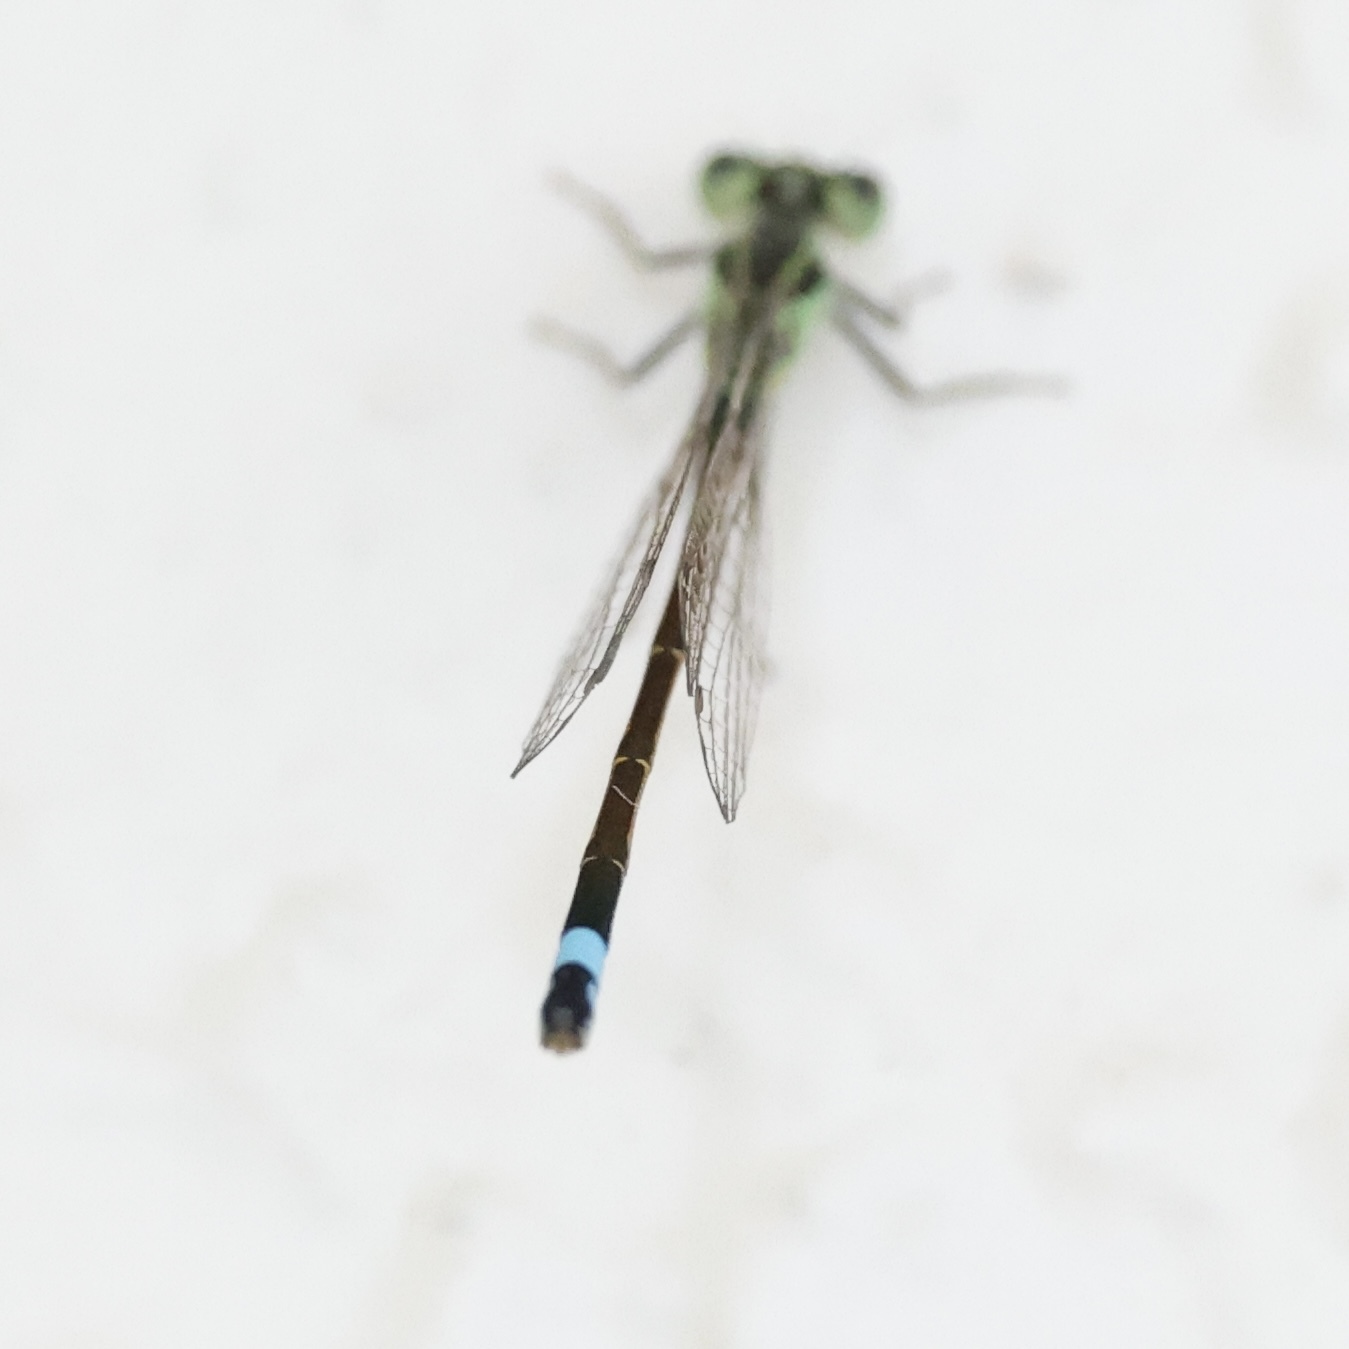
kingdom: Animalia
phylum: Arthropoda
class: Insecta
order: Odonata
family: Coenagrionidae
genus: Ischnura
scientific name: Ischnura ramburii
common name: Rambur's forktail
